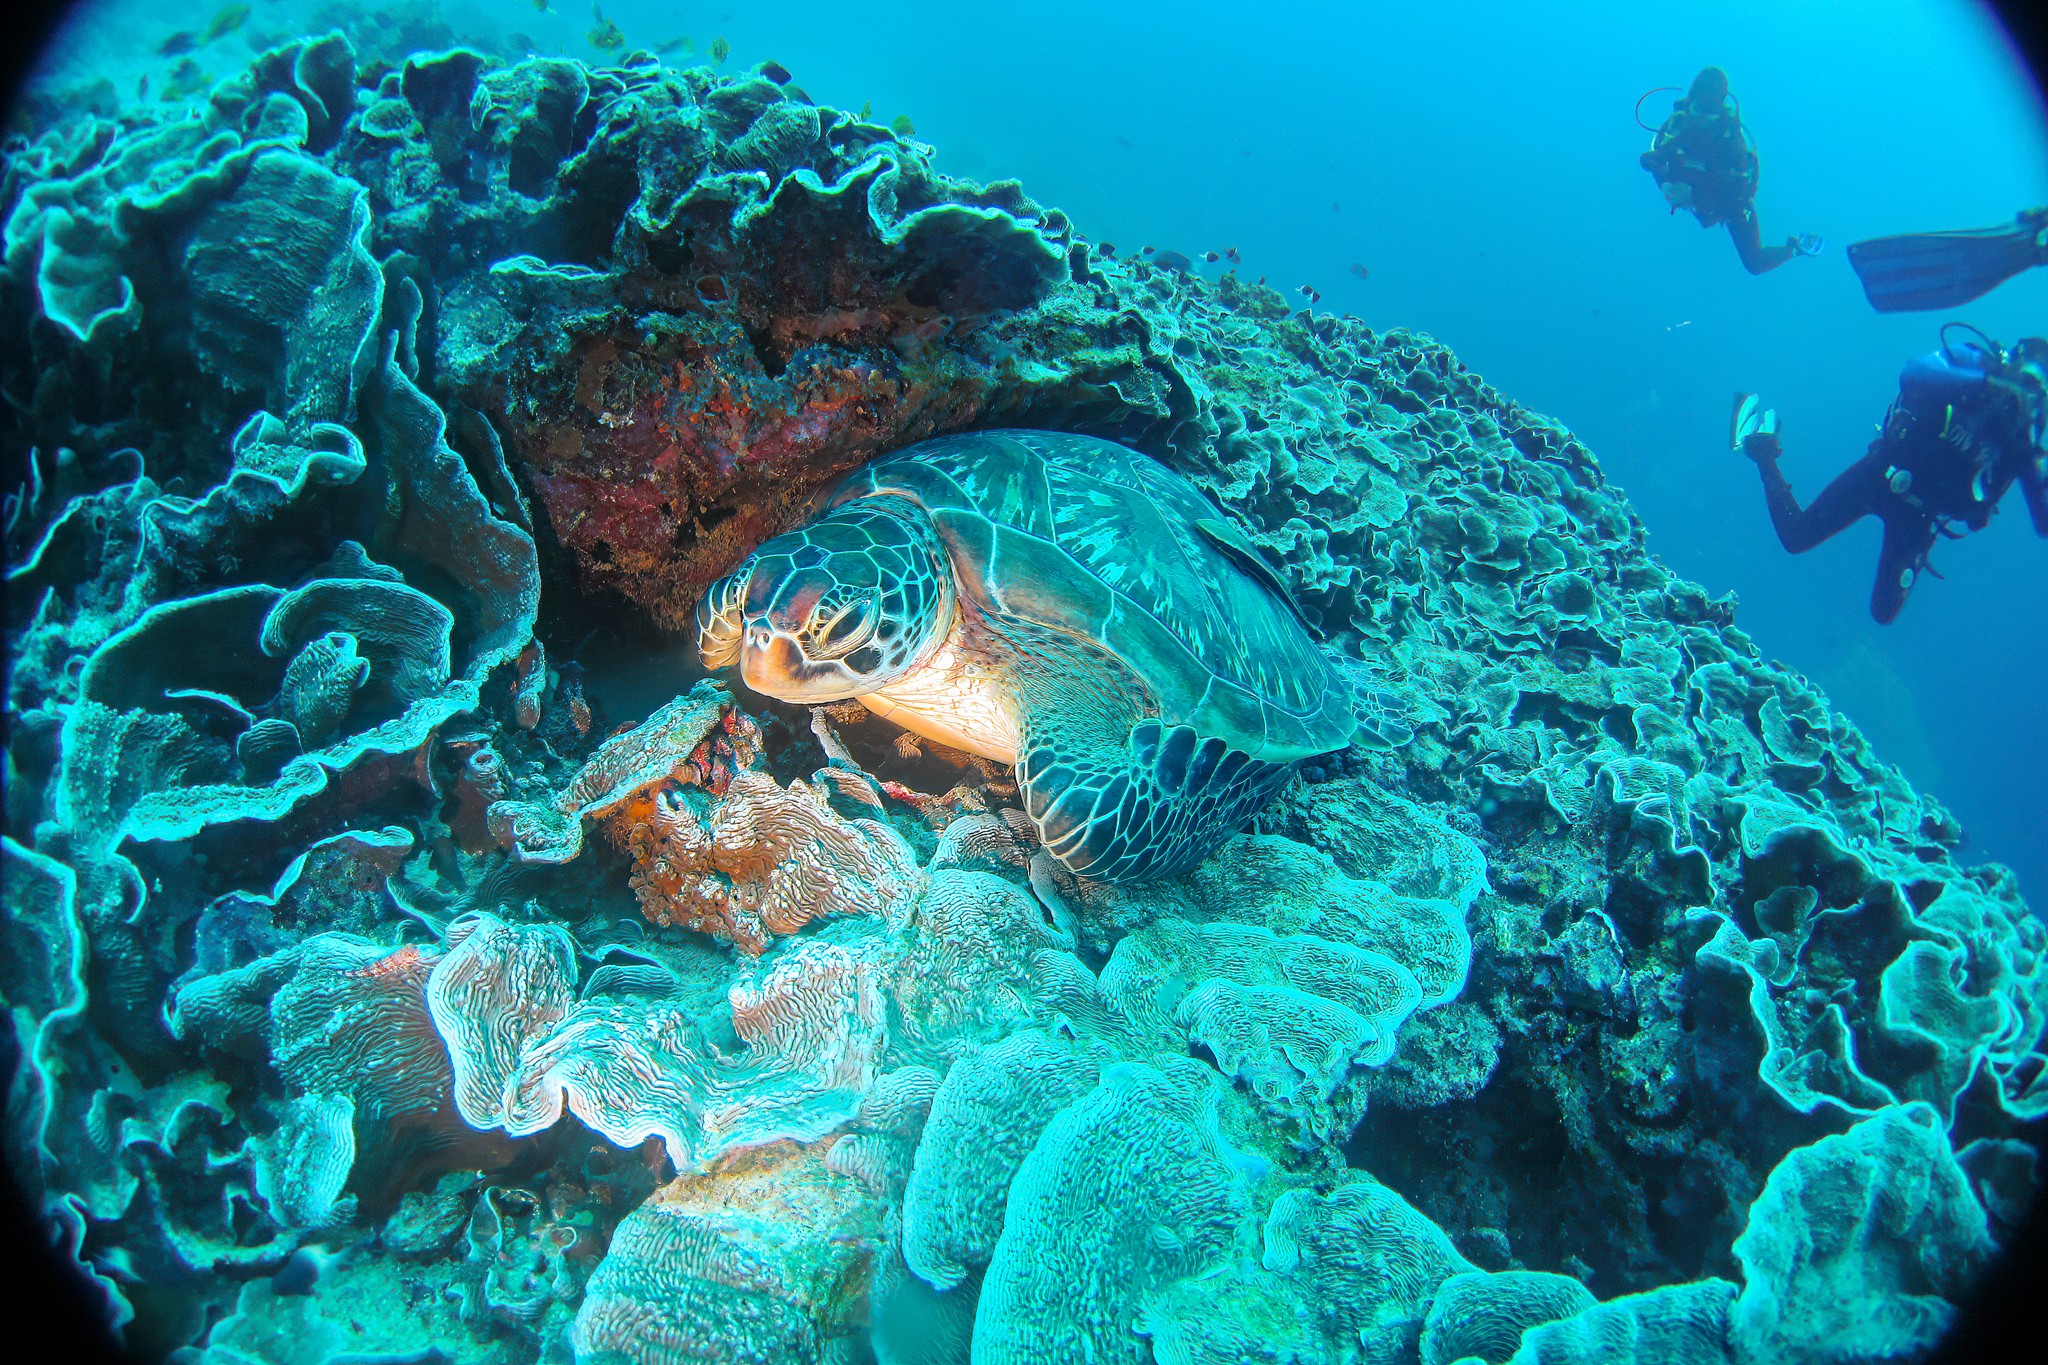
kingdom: Animalia
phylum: Chordata
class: Testudines
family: Cheloniidae
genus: Chelonia
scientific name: Chelonia mydas
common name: Green turtle
